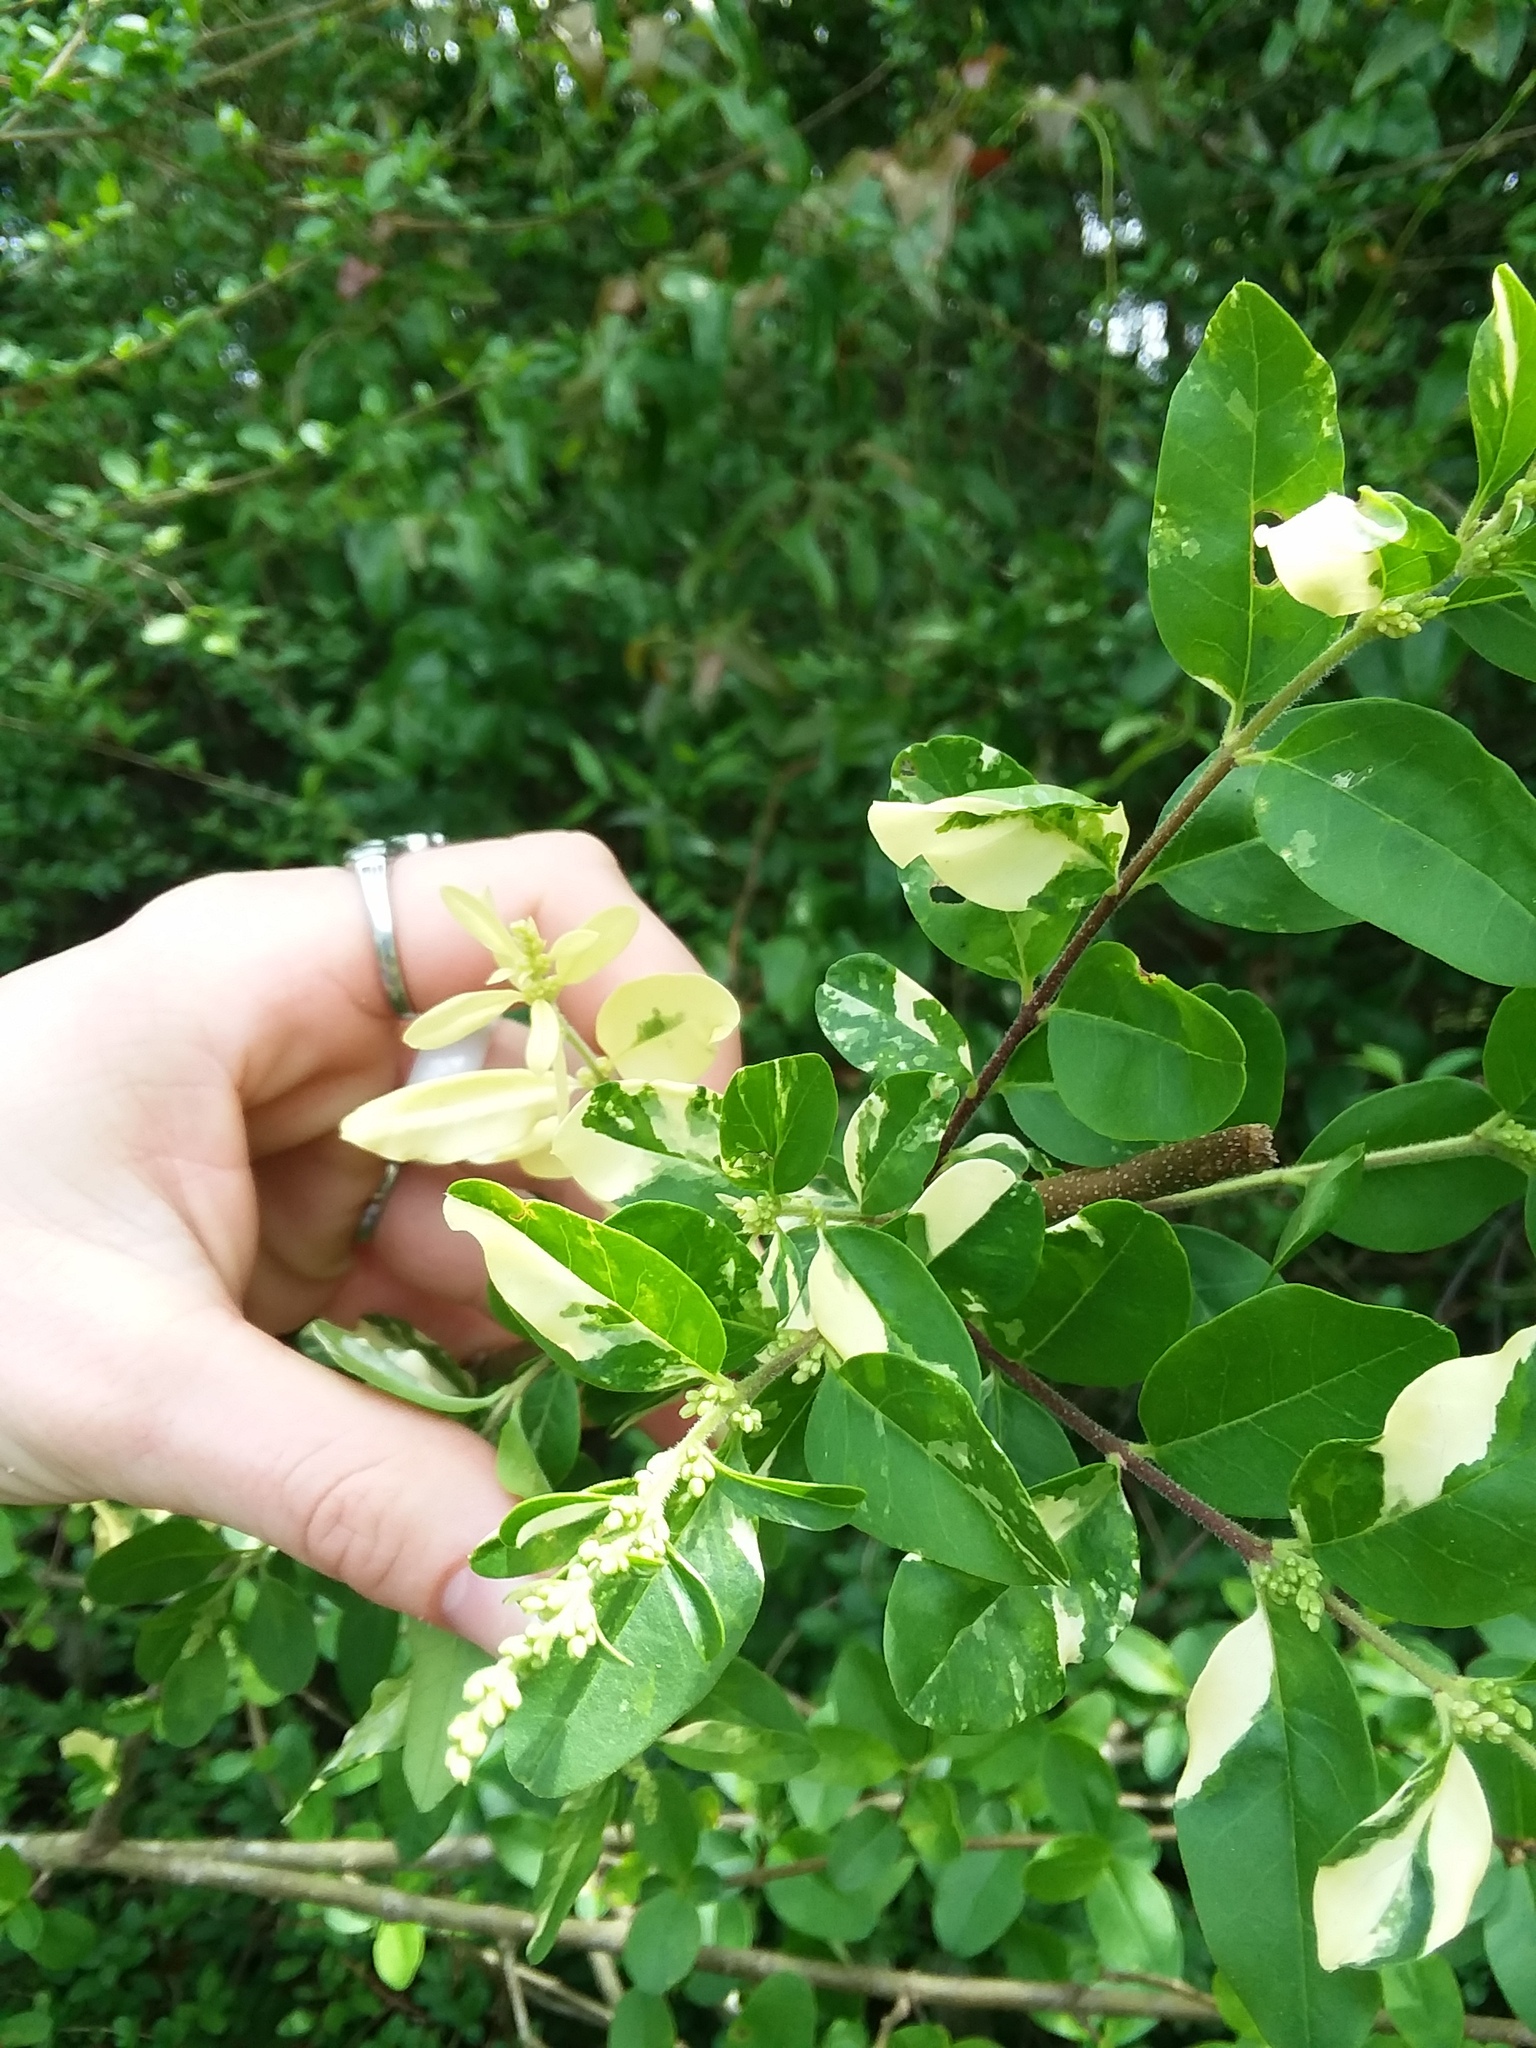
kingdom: Plantae
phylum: Tracheophyta
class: Magnoliopsida
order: Lamiales
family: Oleaceae
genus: Ligustrum
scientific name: Ligustrum sinense
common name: Chinese privet
